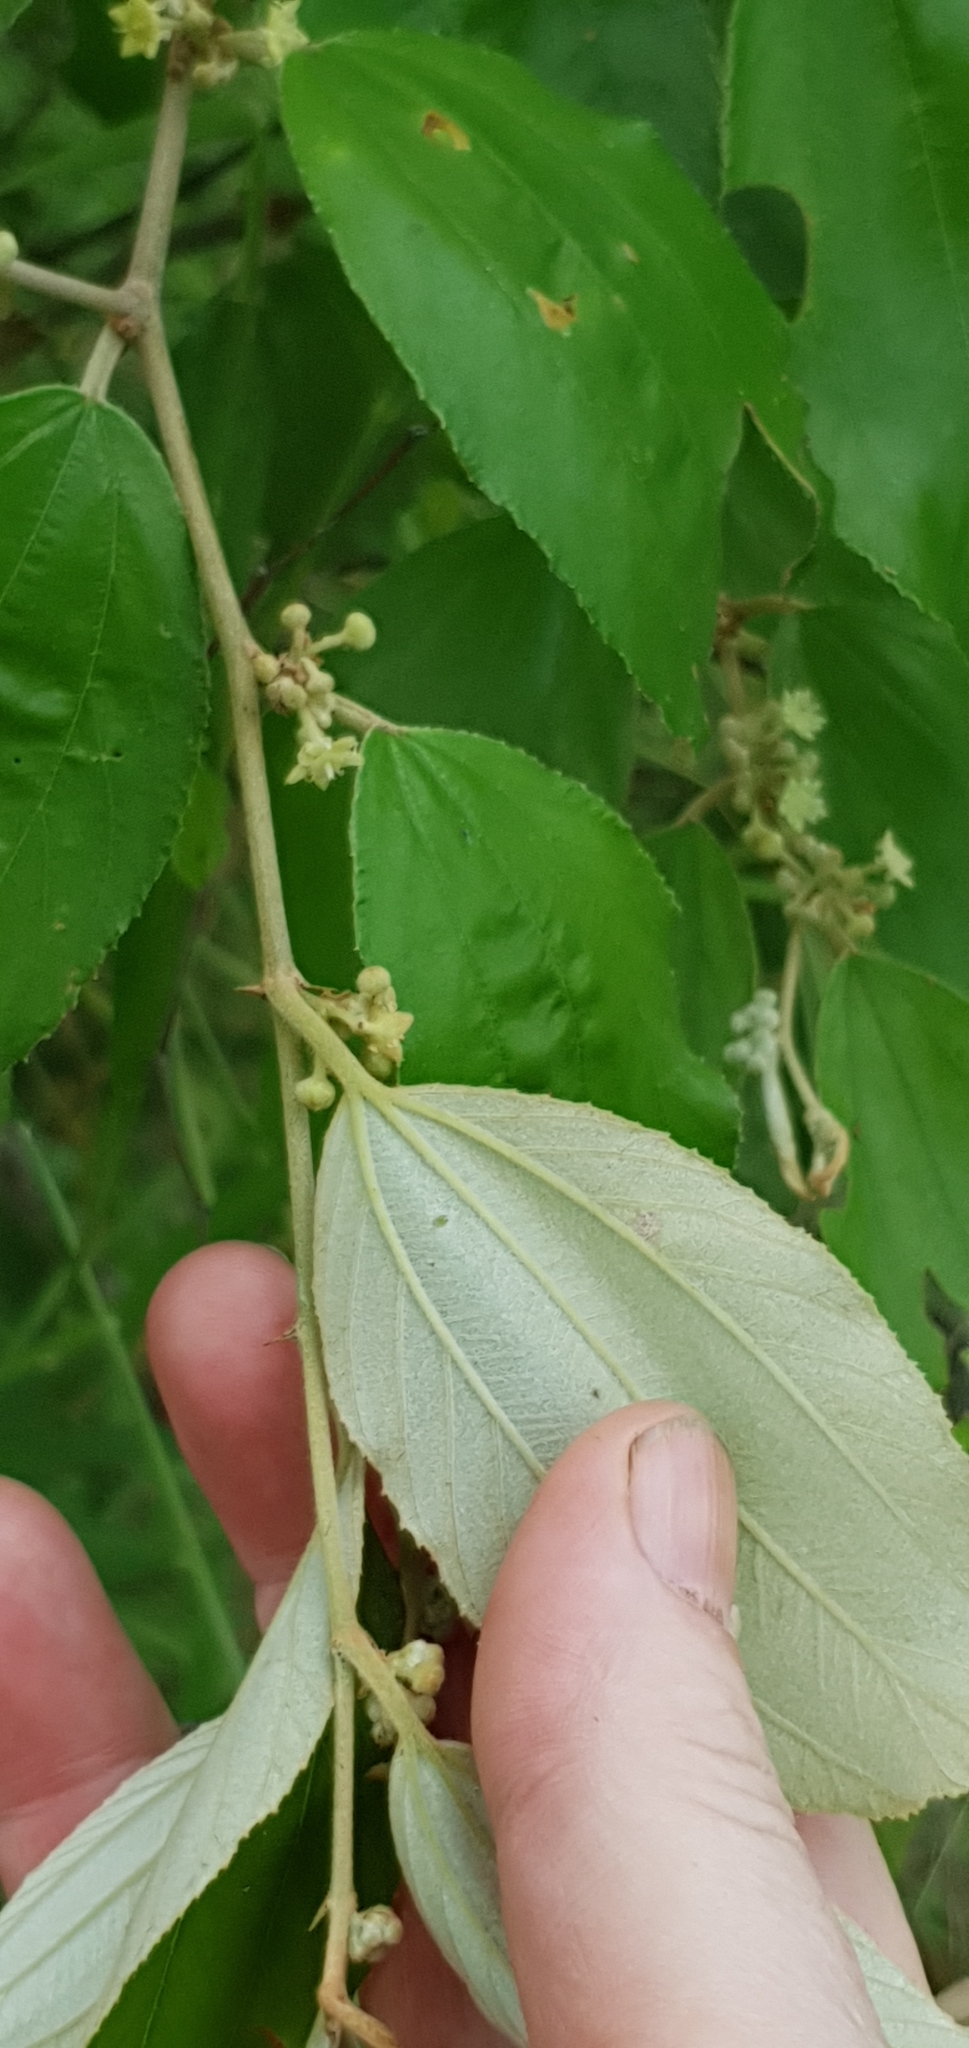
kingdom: Plantae
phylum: Tracheophyta
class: Magnoliopsida
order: Rosales
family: Rhamnaceae
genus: Ziziphus
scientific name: Ziziphus mauritiana
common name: Indian jujube
